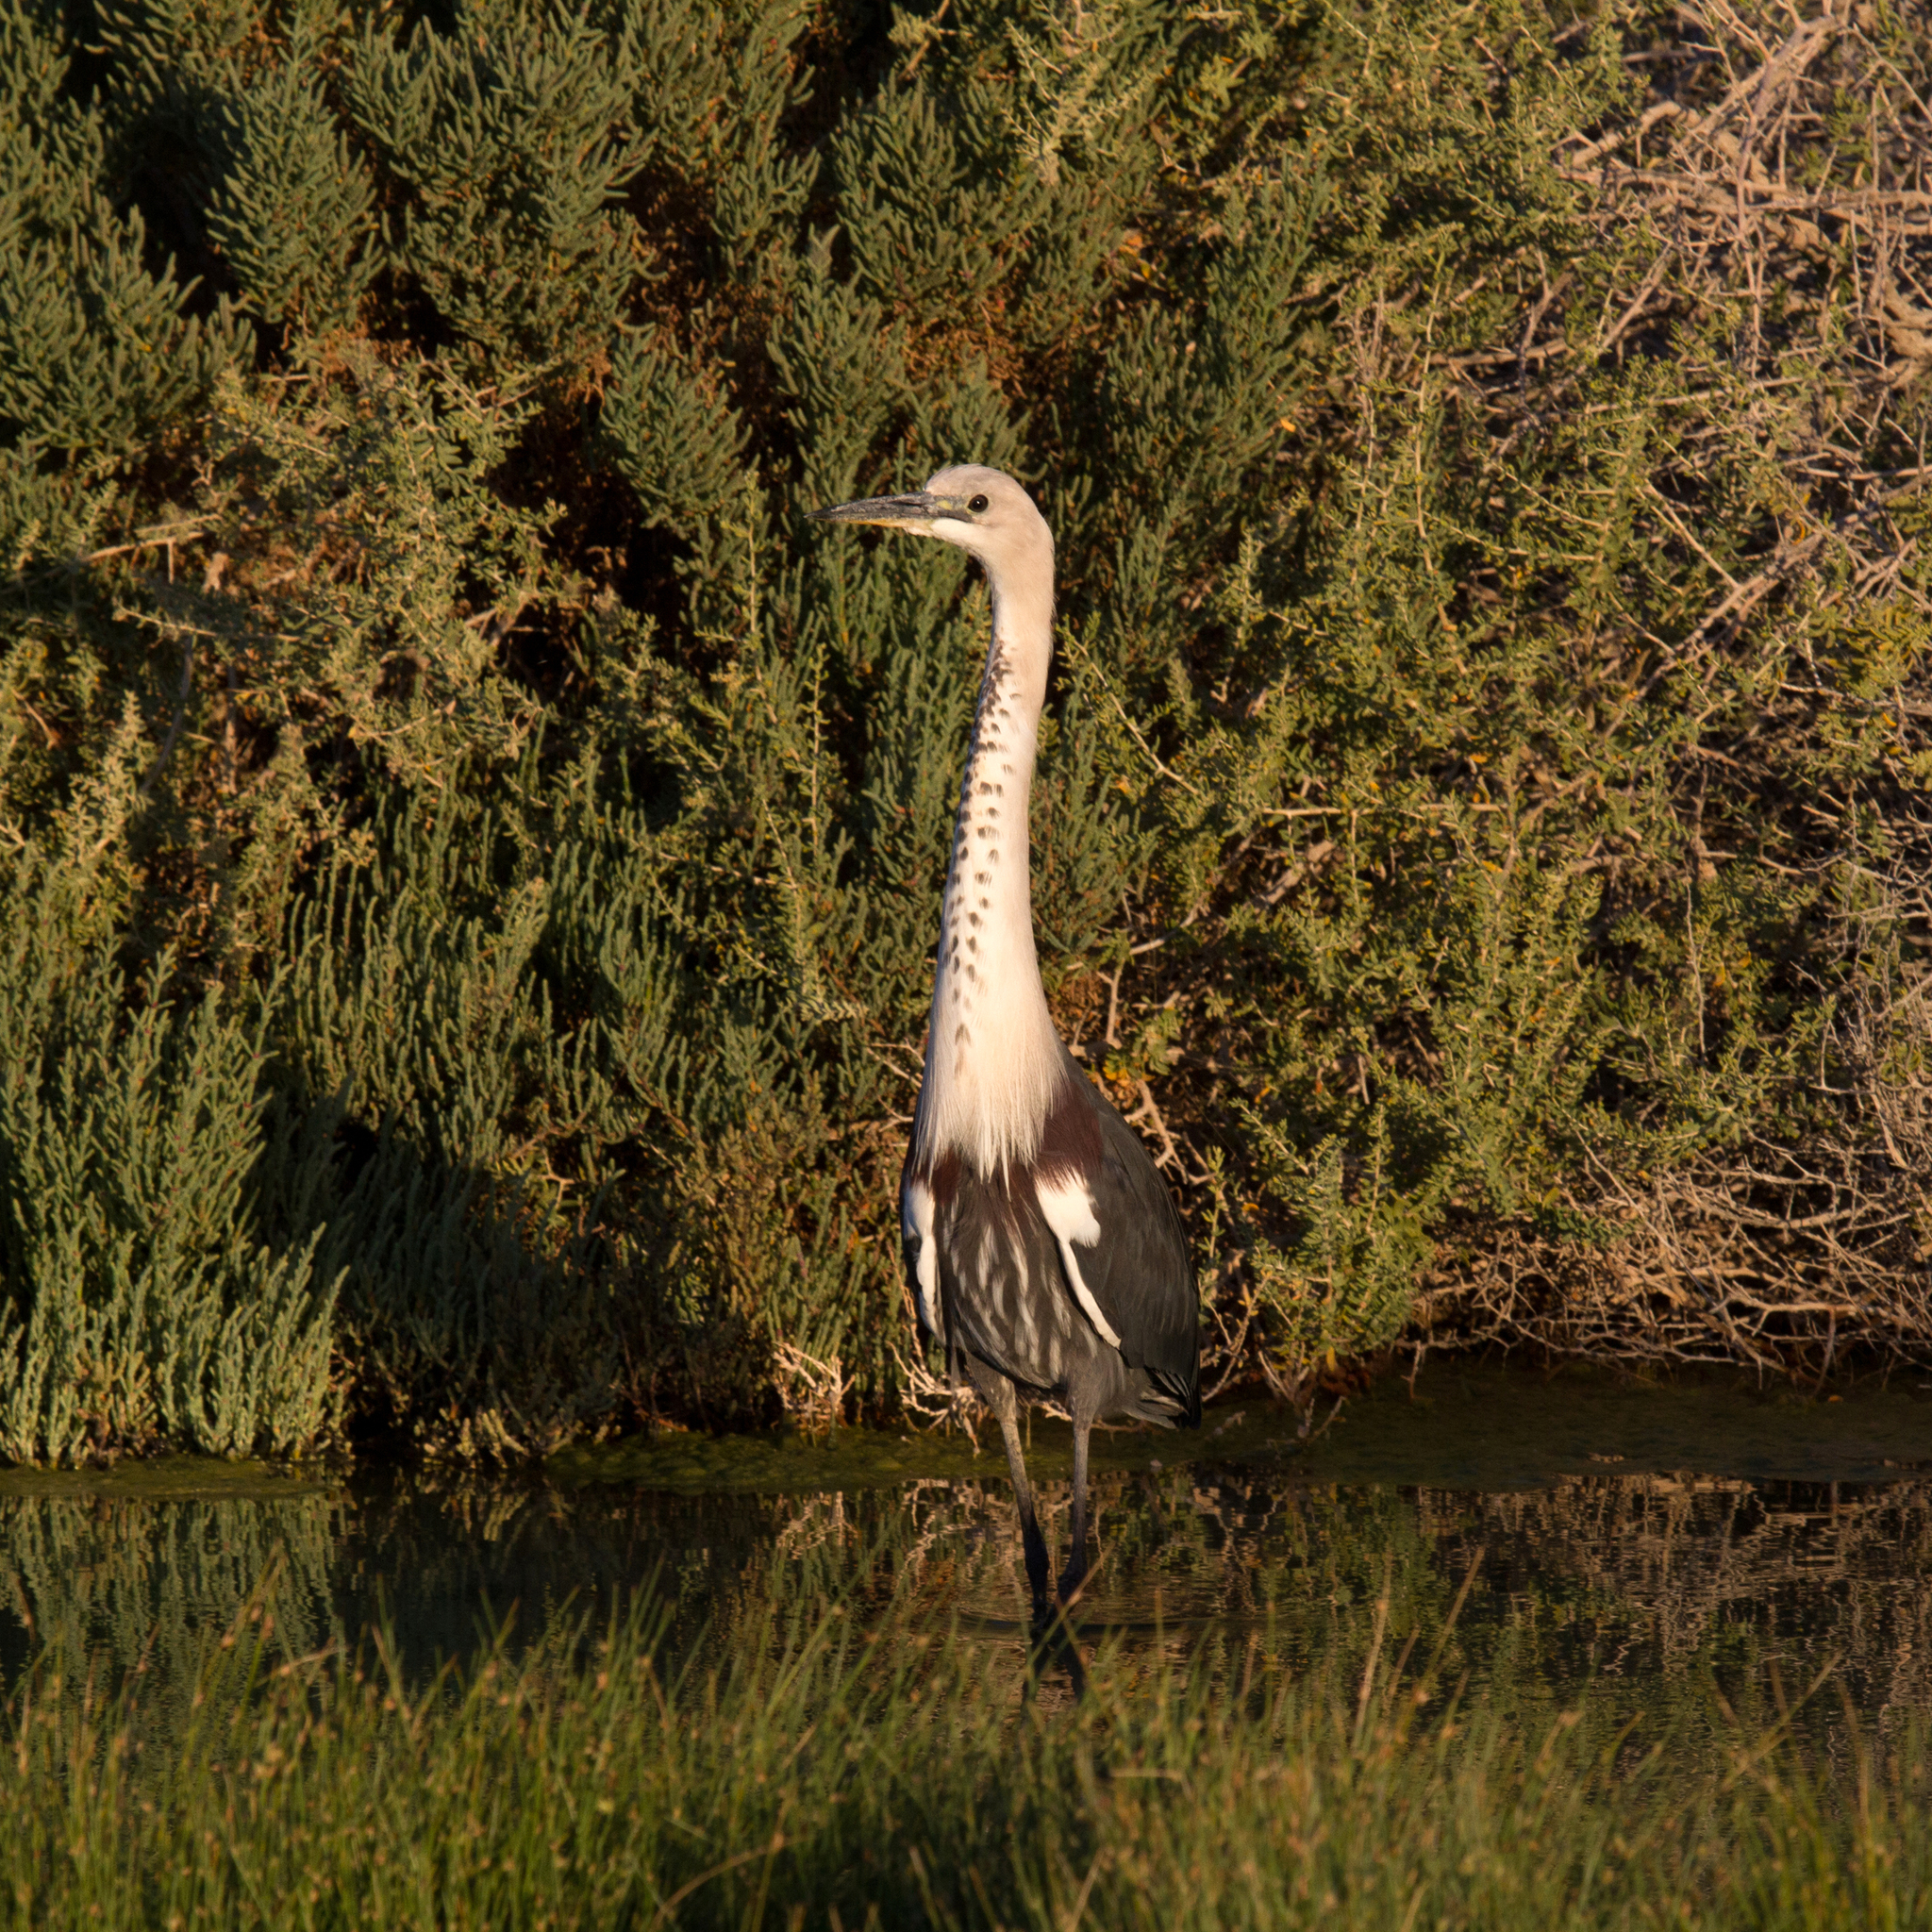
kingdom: Animalia
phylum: Chordata
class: Aves
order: Pelecaniformes
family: Ardeidae
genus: Ardea
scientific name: Ardea pacifica
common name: White-necked heron
